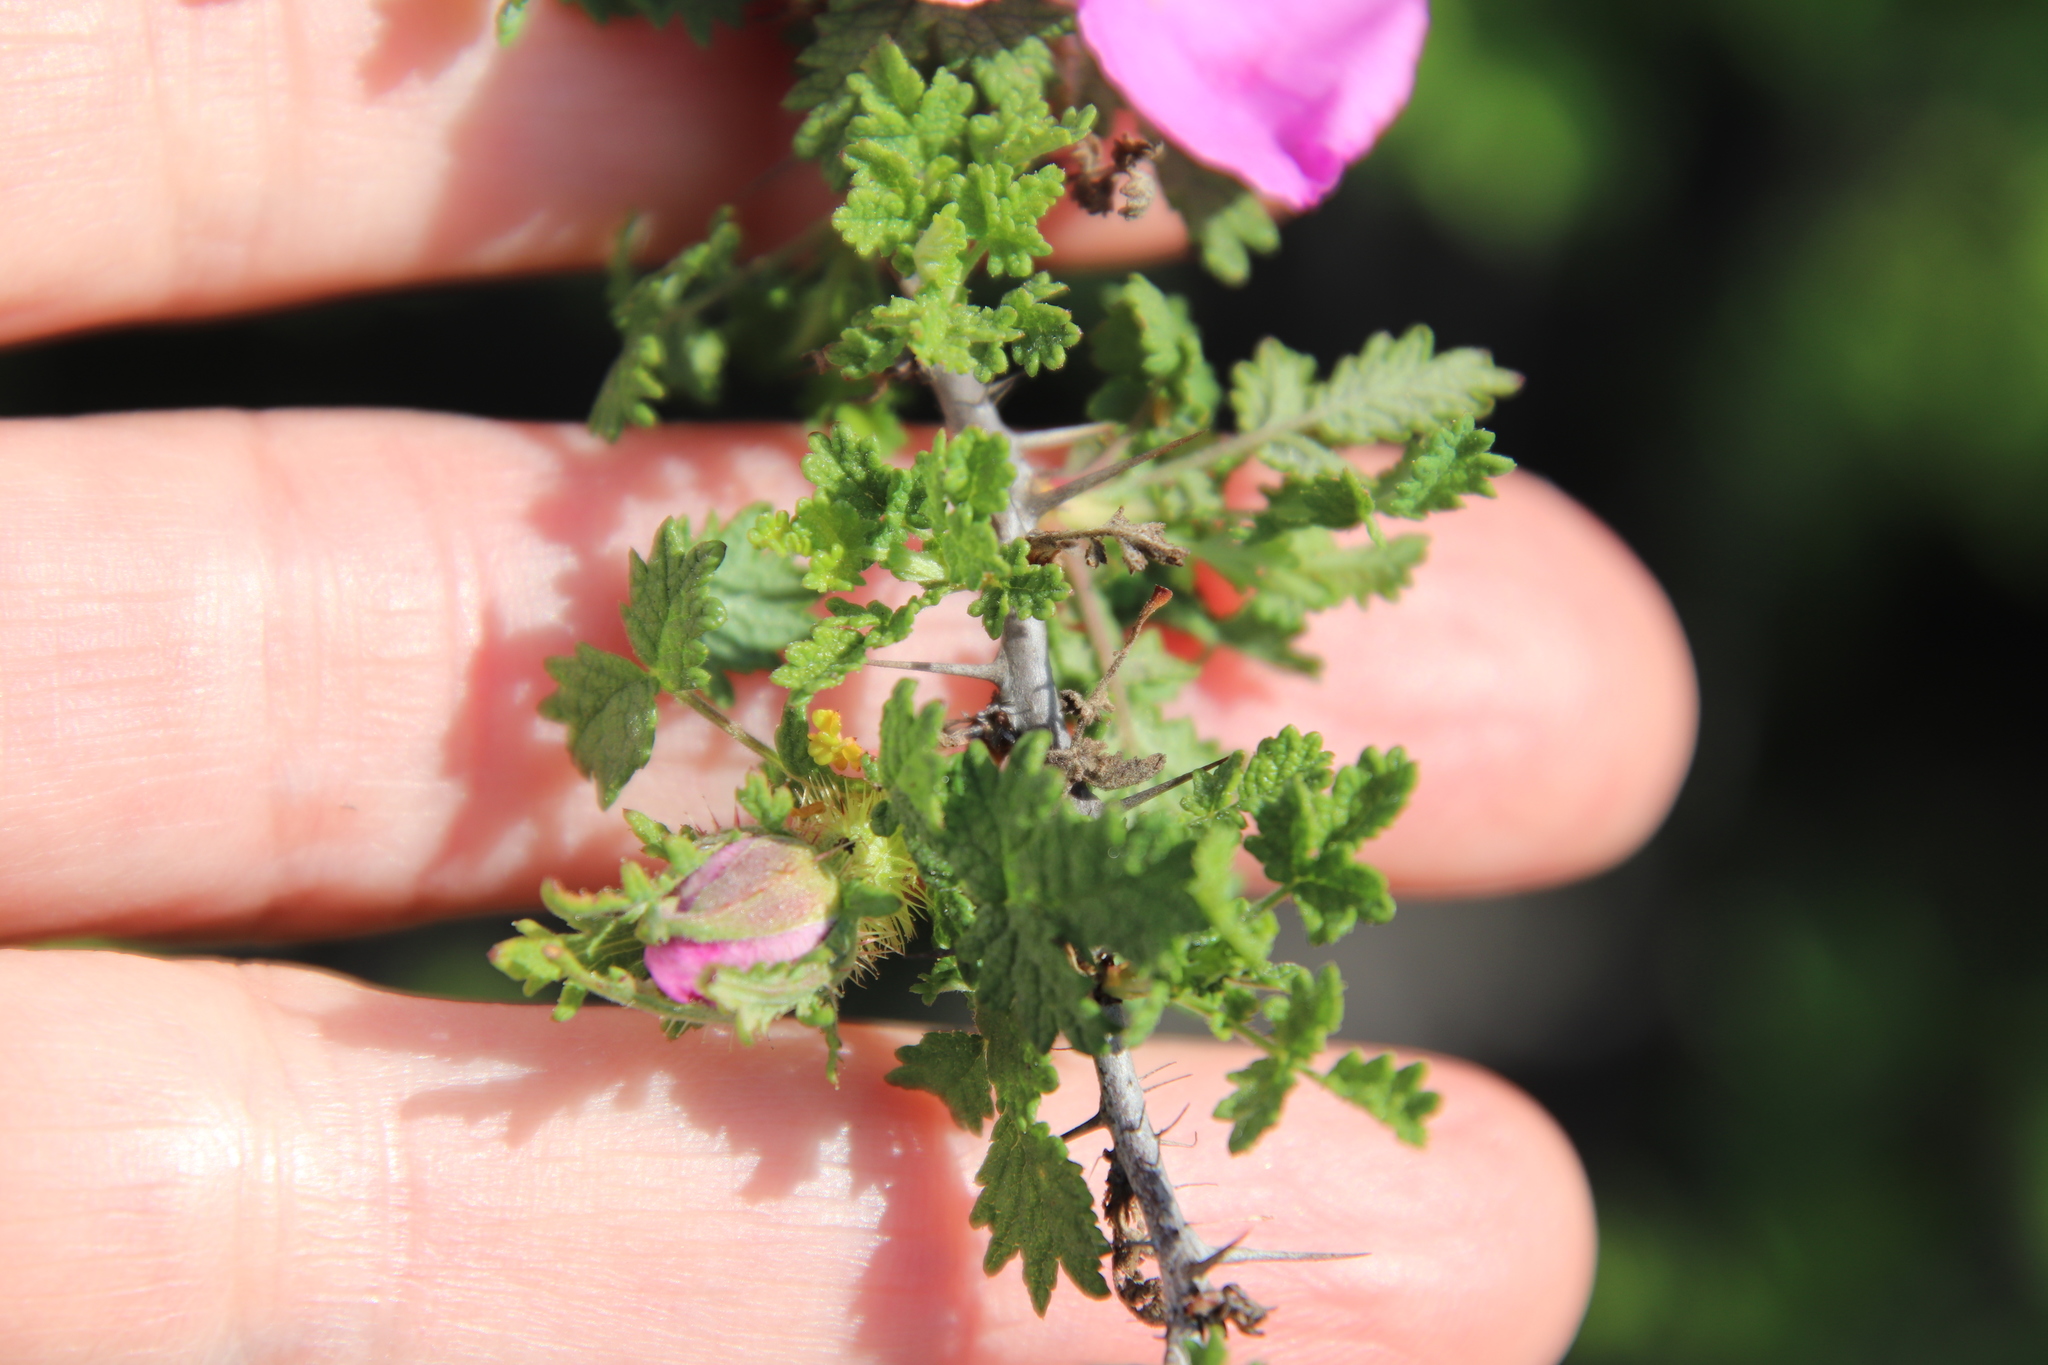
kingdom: Plantae
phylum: Tracheophyta
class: Magnoliopsida
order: Rosales
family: Rosaceae
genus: Rosa
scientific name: Rosa minutifolia
